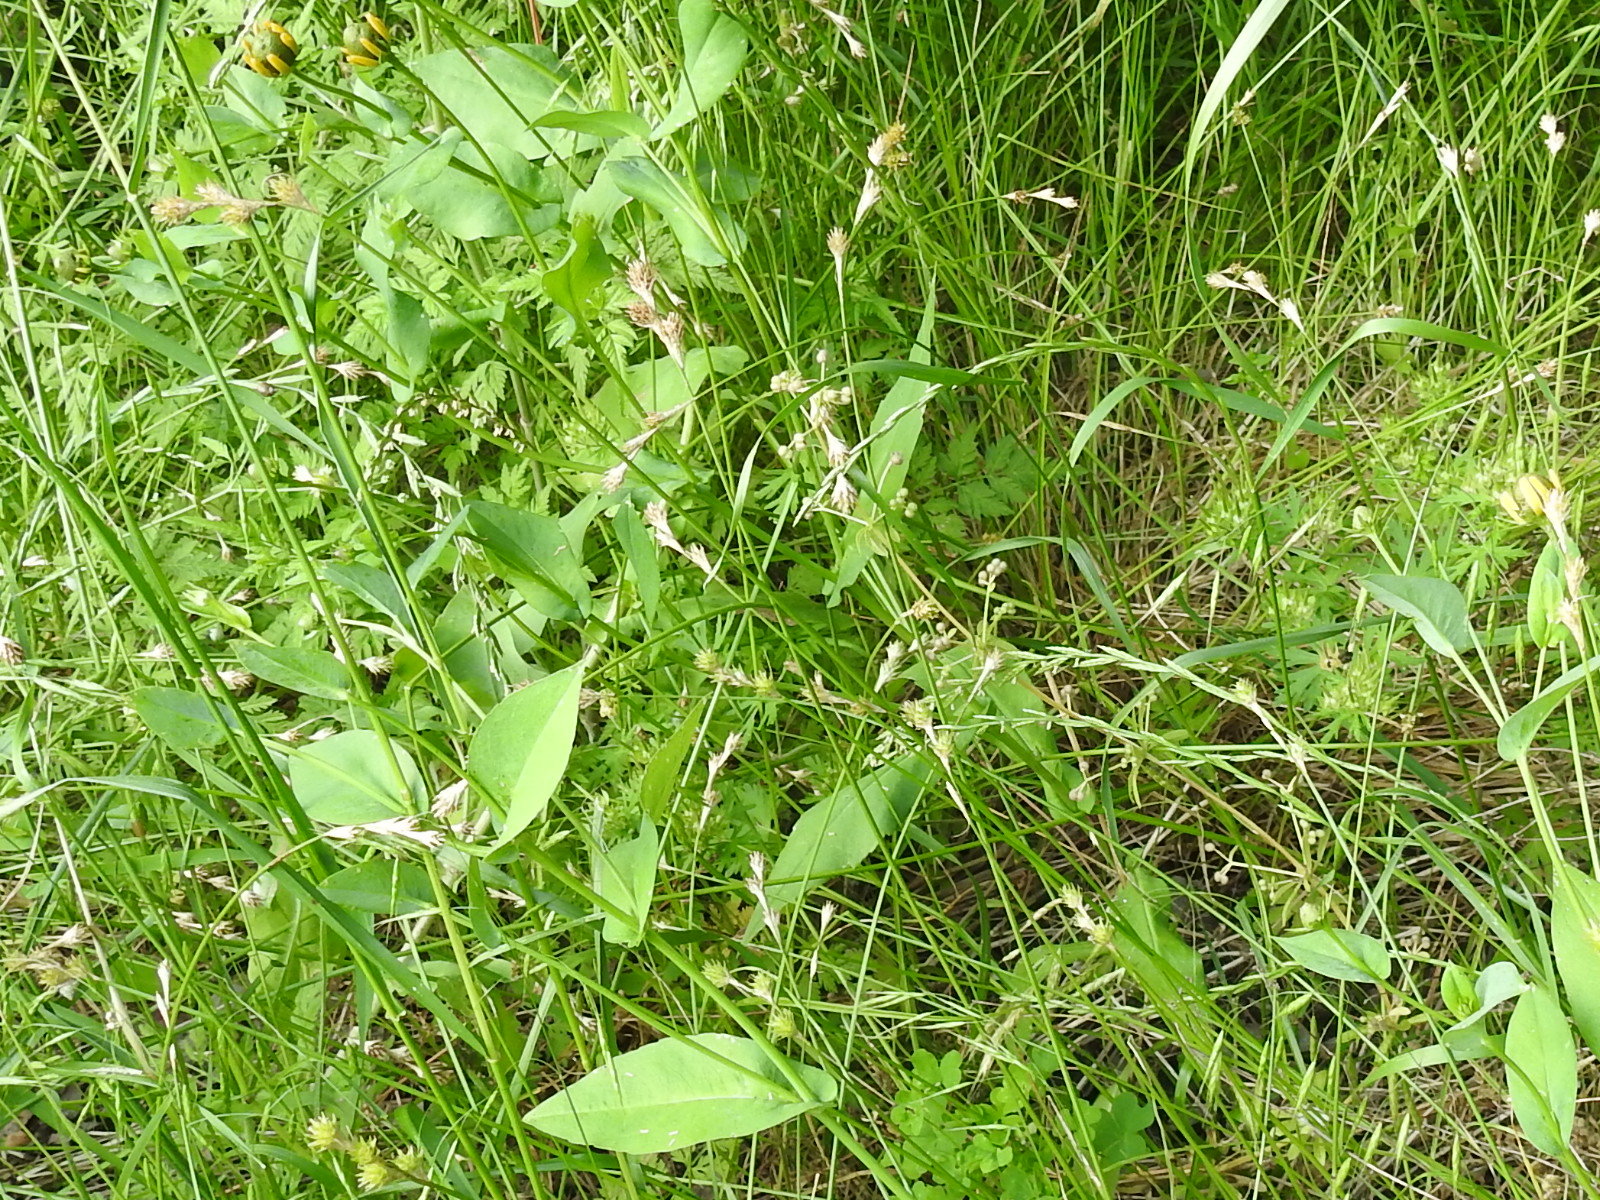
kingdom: Plantae
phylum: Tracheophyta
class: Liliopsida
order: Poales
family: Cyperaceae
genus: Carex
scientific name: Carex tetrastachya
